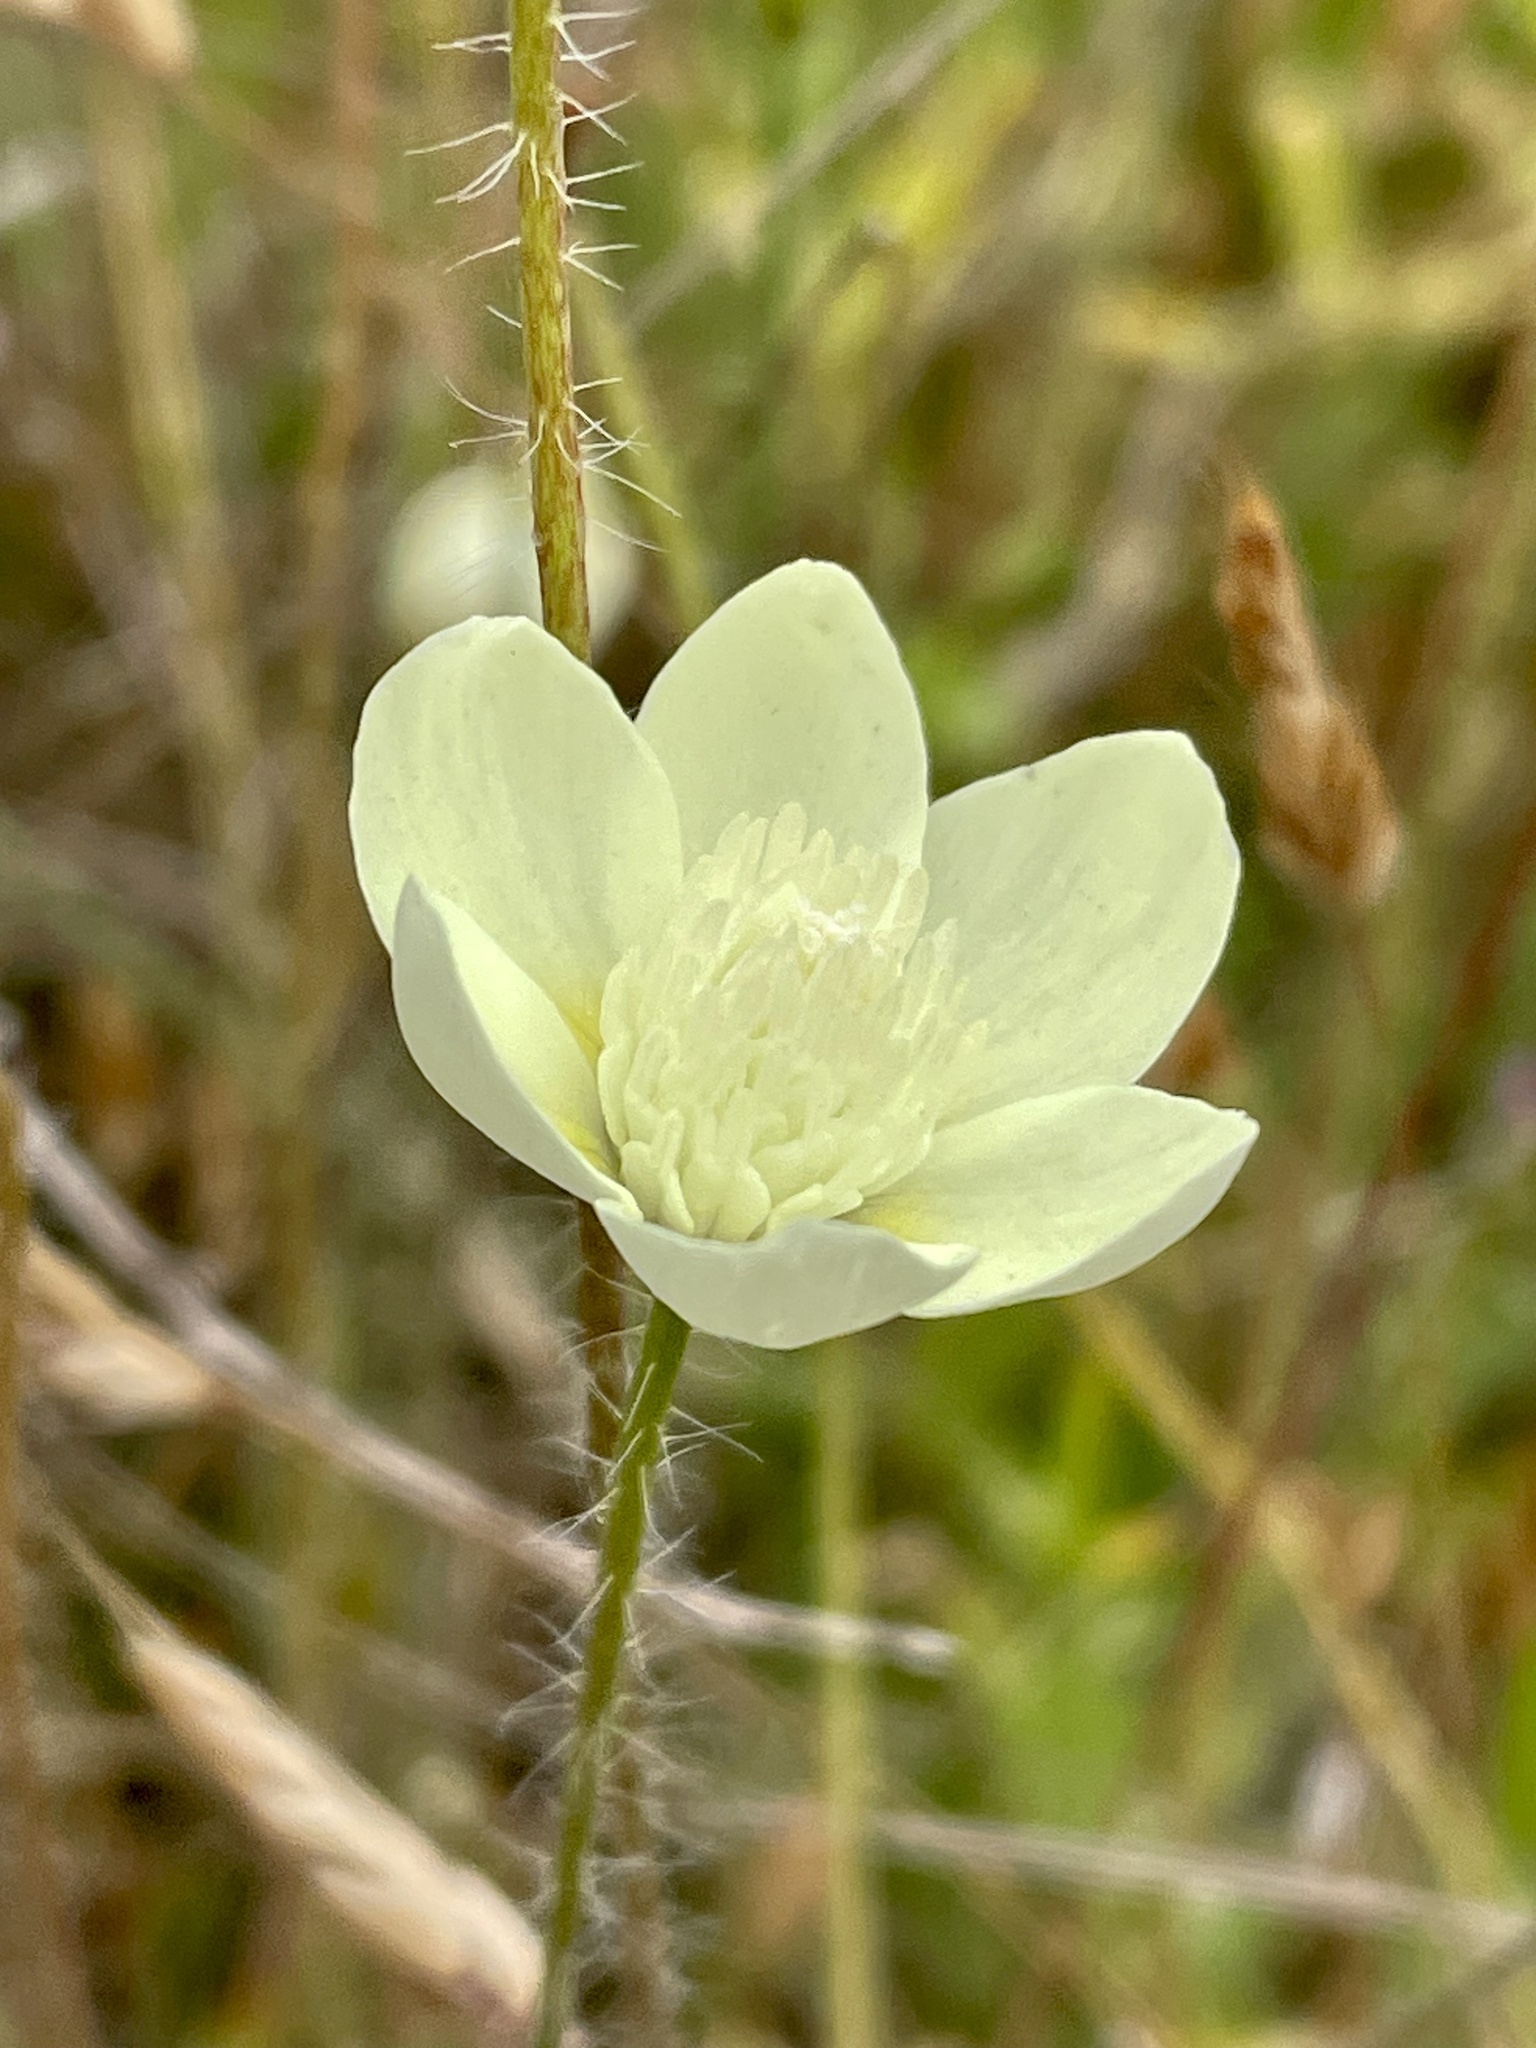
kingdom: Plantae
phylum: Tracheophyta
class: Magnoliopsida
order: Ranunculales
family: Papaveraceae
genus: Platystemon
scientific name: Platystemon californicus
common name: Cream-cups
